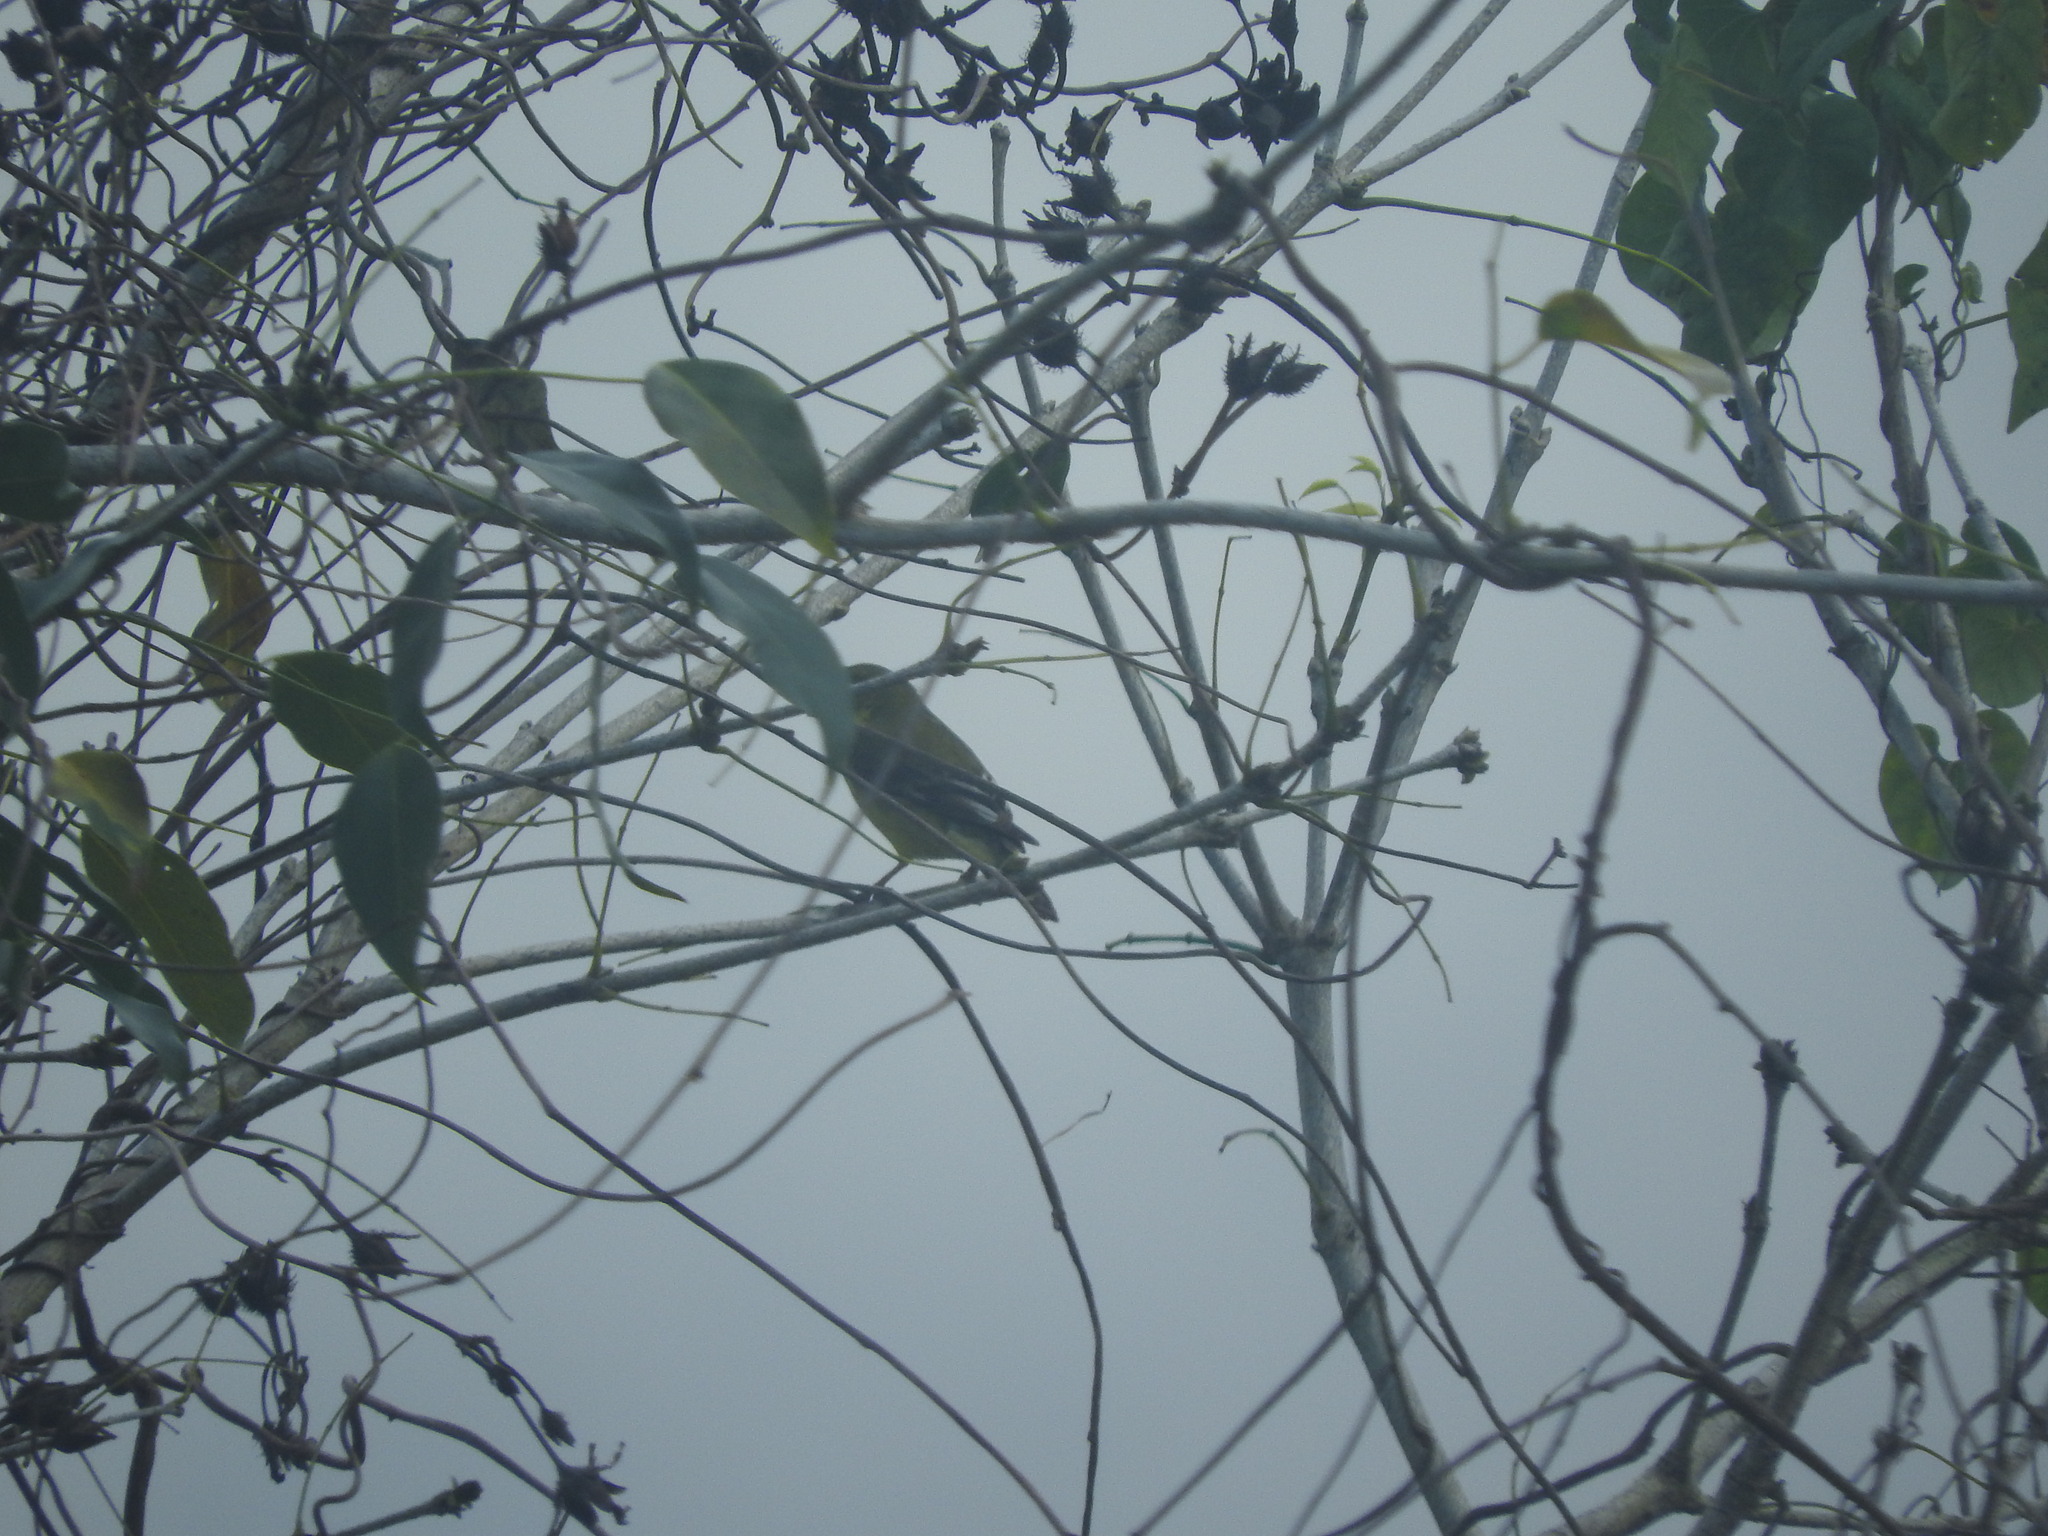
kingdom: Animalia
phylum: Chordata
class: Aves
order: Passeriformes
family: Fringillidae
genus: Spinus
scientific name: Spinus psaltria
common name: Lesser goldfinch
